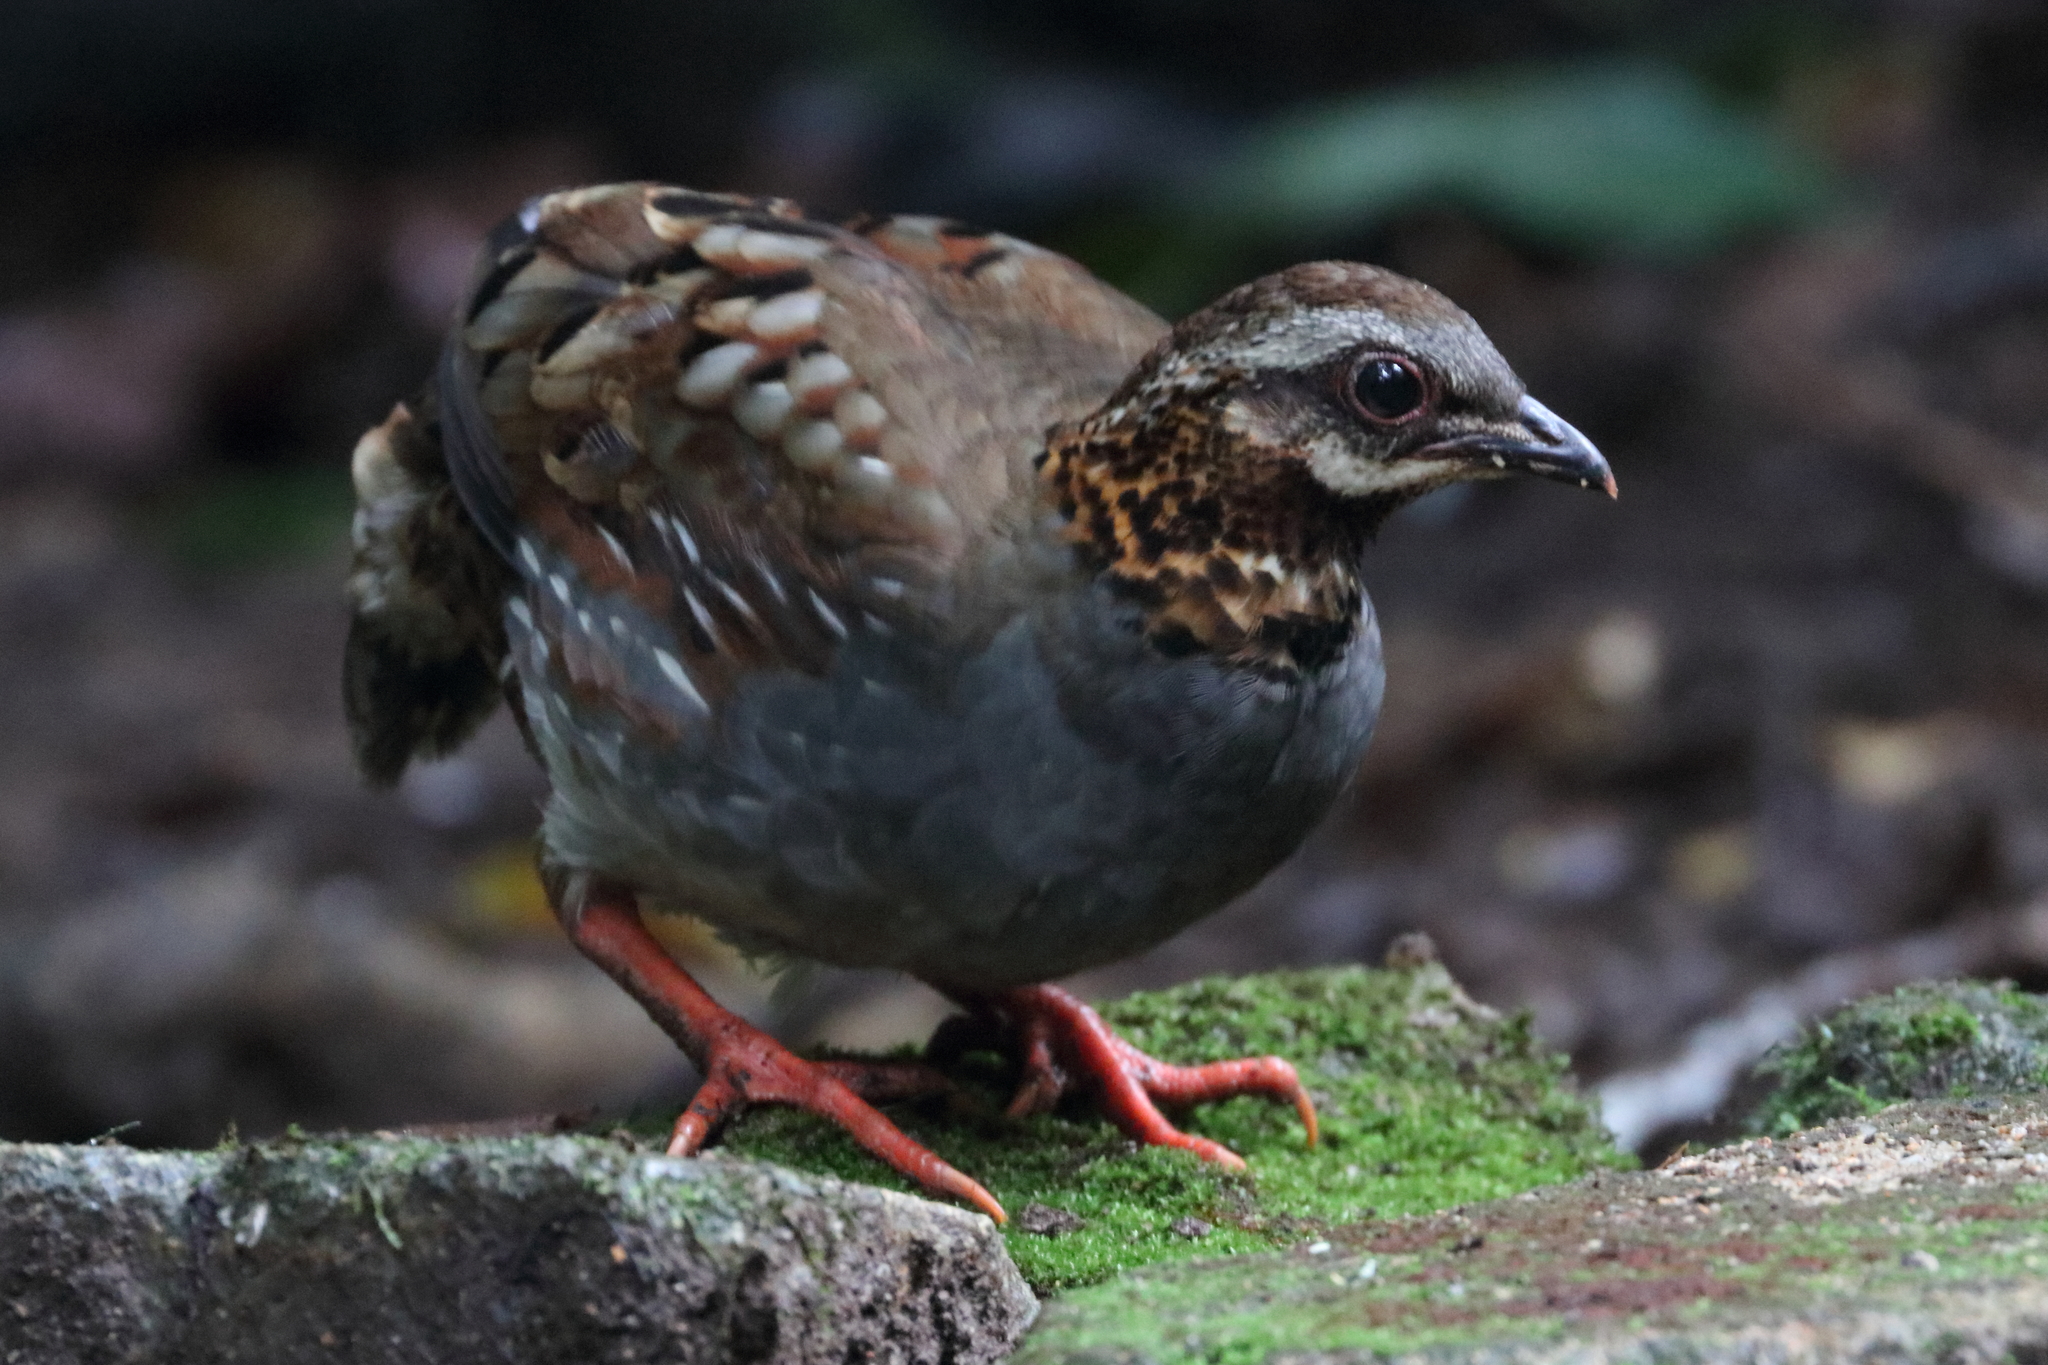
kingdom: Animalia
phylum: Chordata
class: Aves
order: Galliformes
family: Phasianidae
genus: Arborophila
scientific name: Arborophila rufogularis
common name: Rufous-throated partridge
